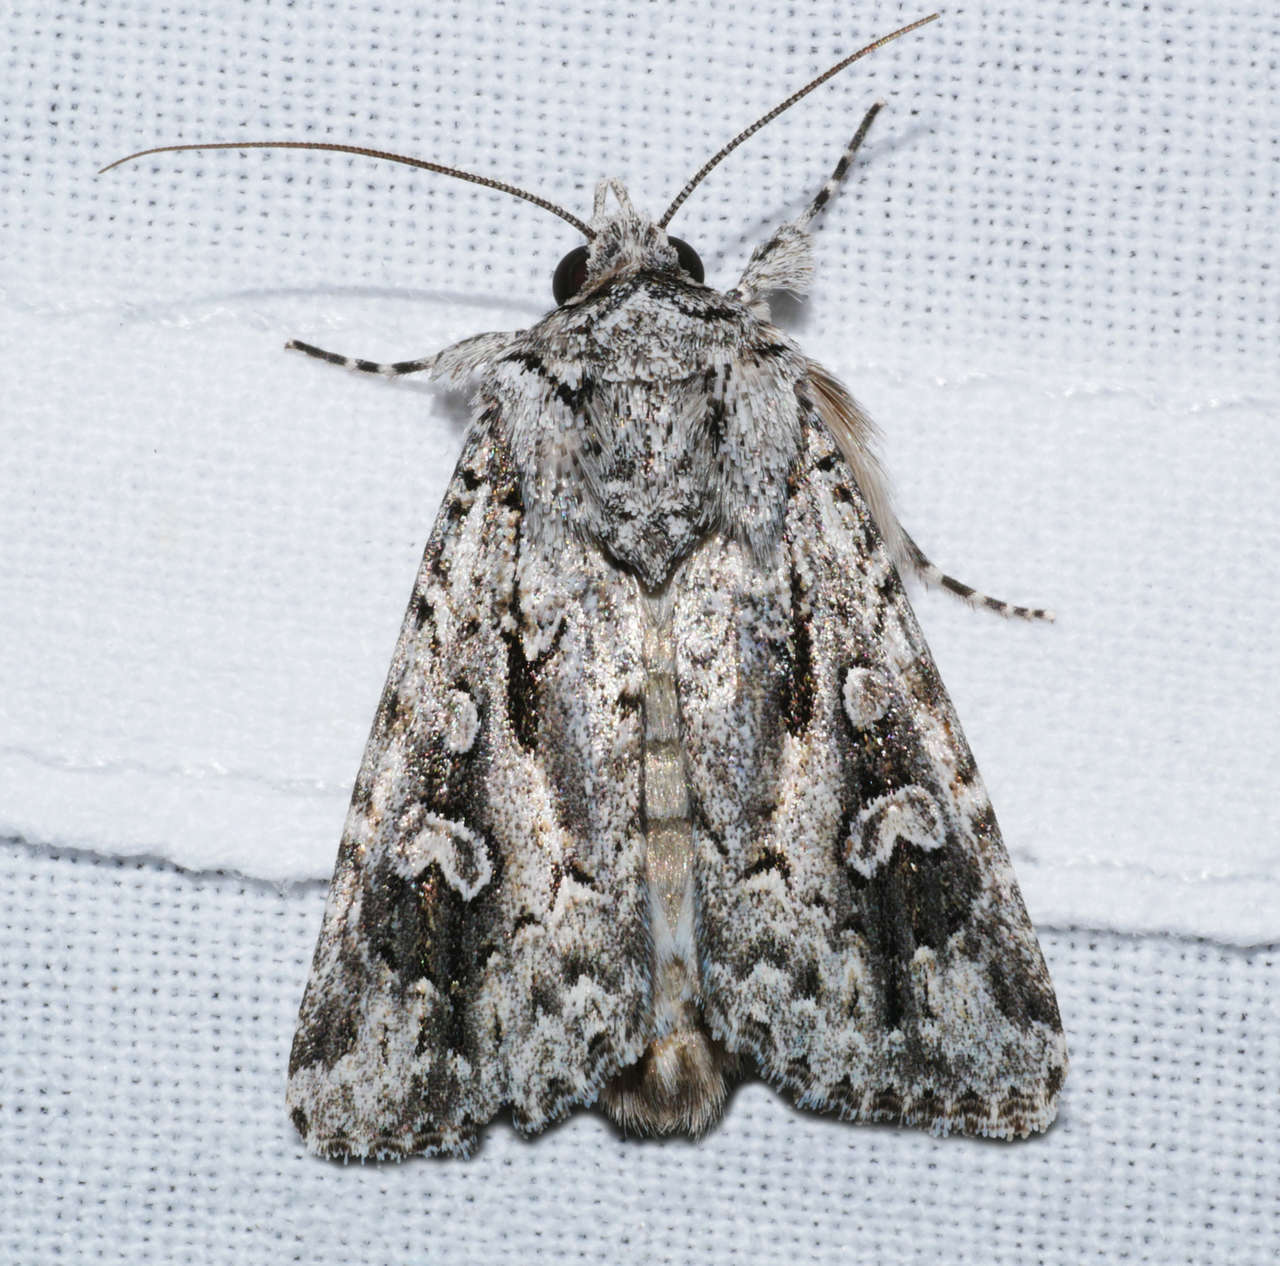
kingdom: Animalia
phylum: Arthropoda
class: Insecta
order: Lepidoptera
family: Noctuidae
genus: Ectopatria
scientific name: Ectopatria aspera
